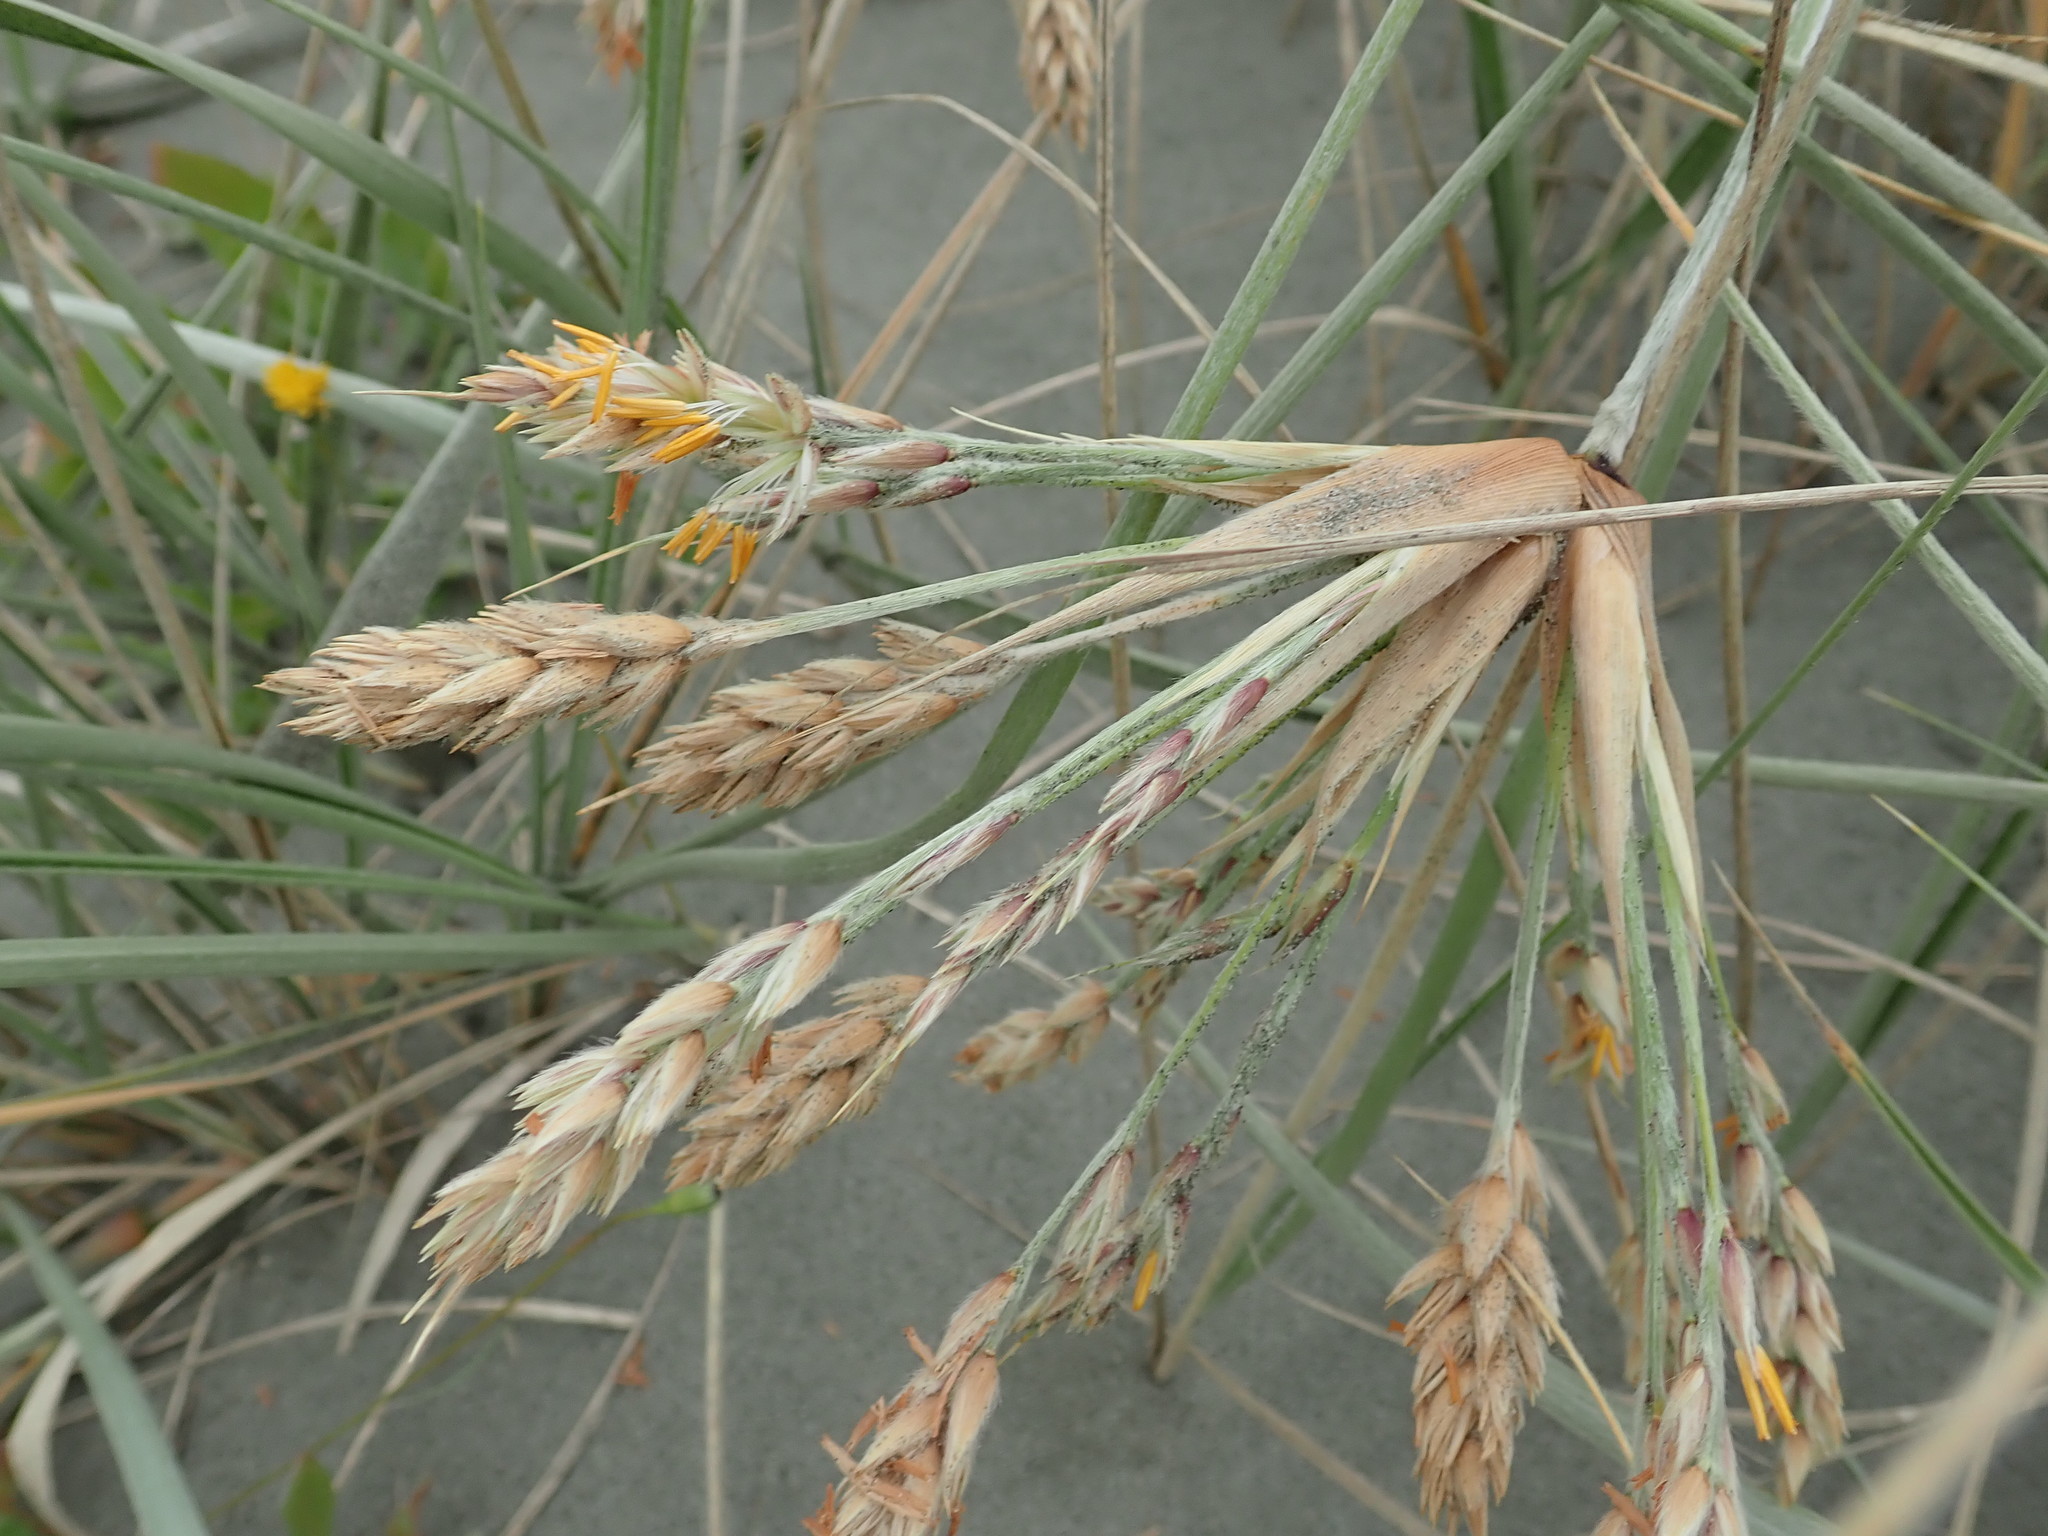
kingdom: Plantae
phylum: Tracheophyta
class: Liliopsida
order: Poales
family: Poaceae
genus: Spinifex
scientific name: Spinifex sericeus
